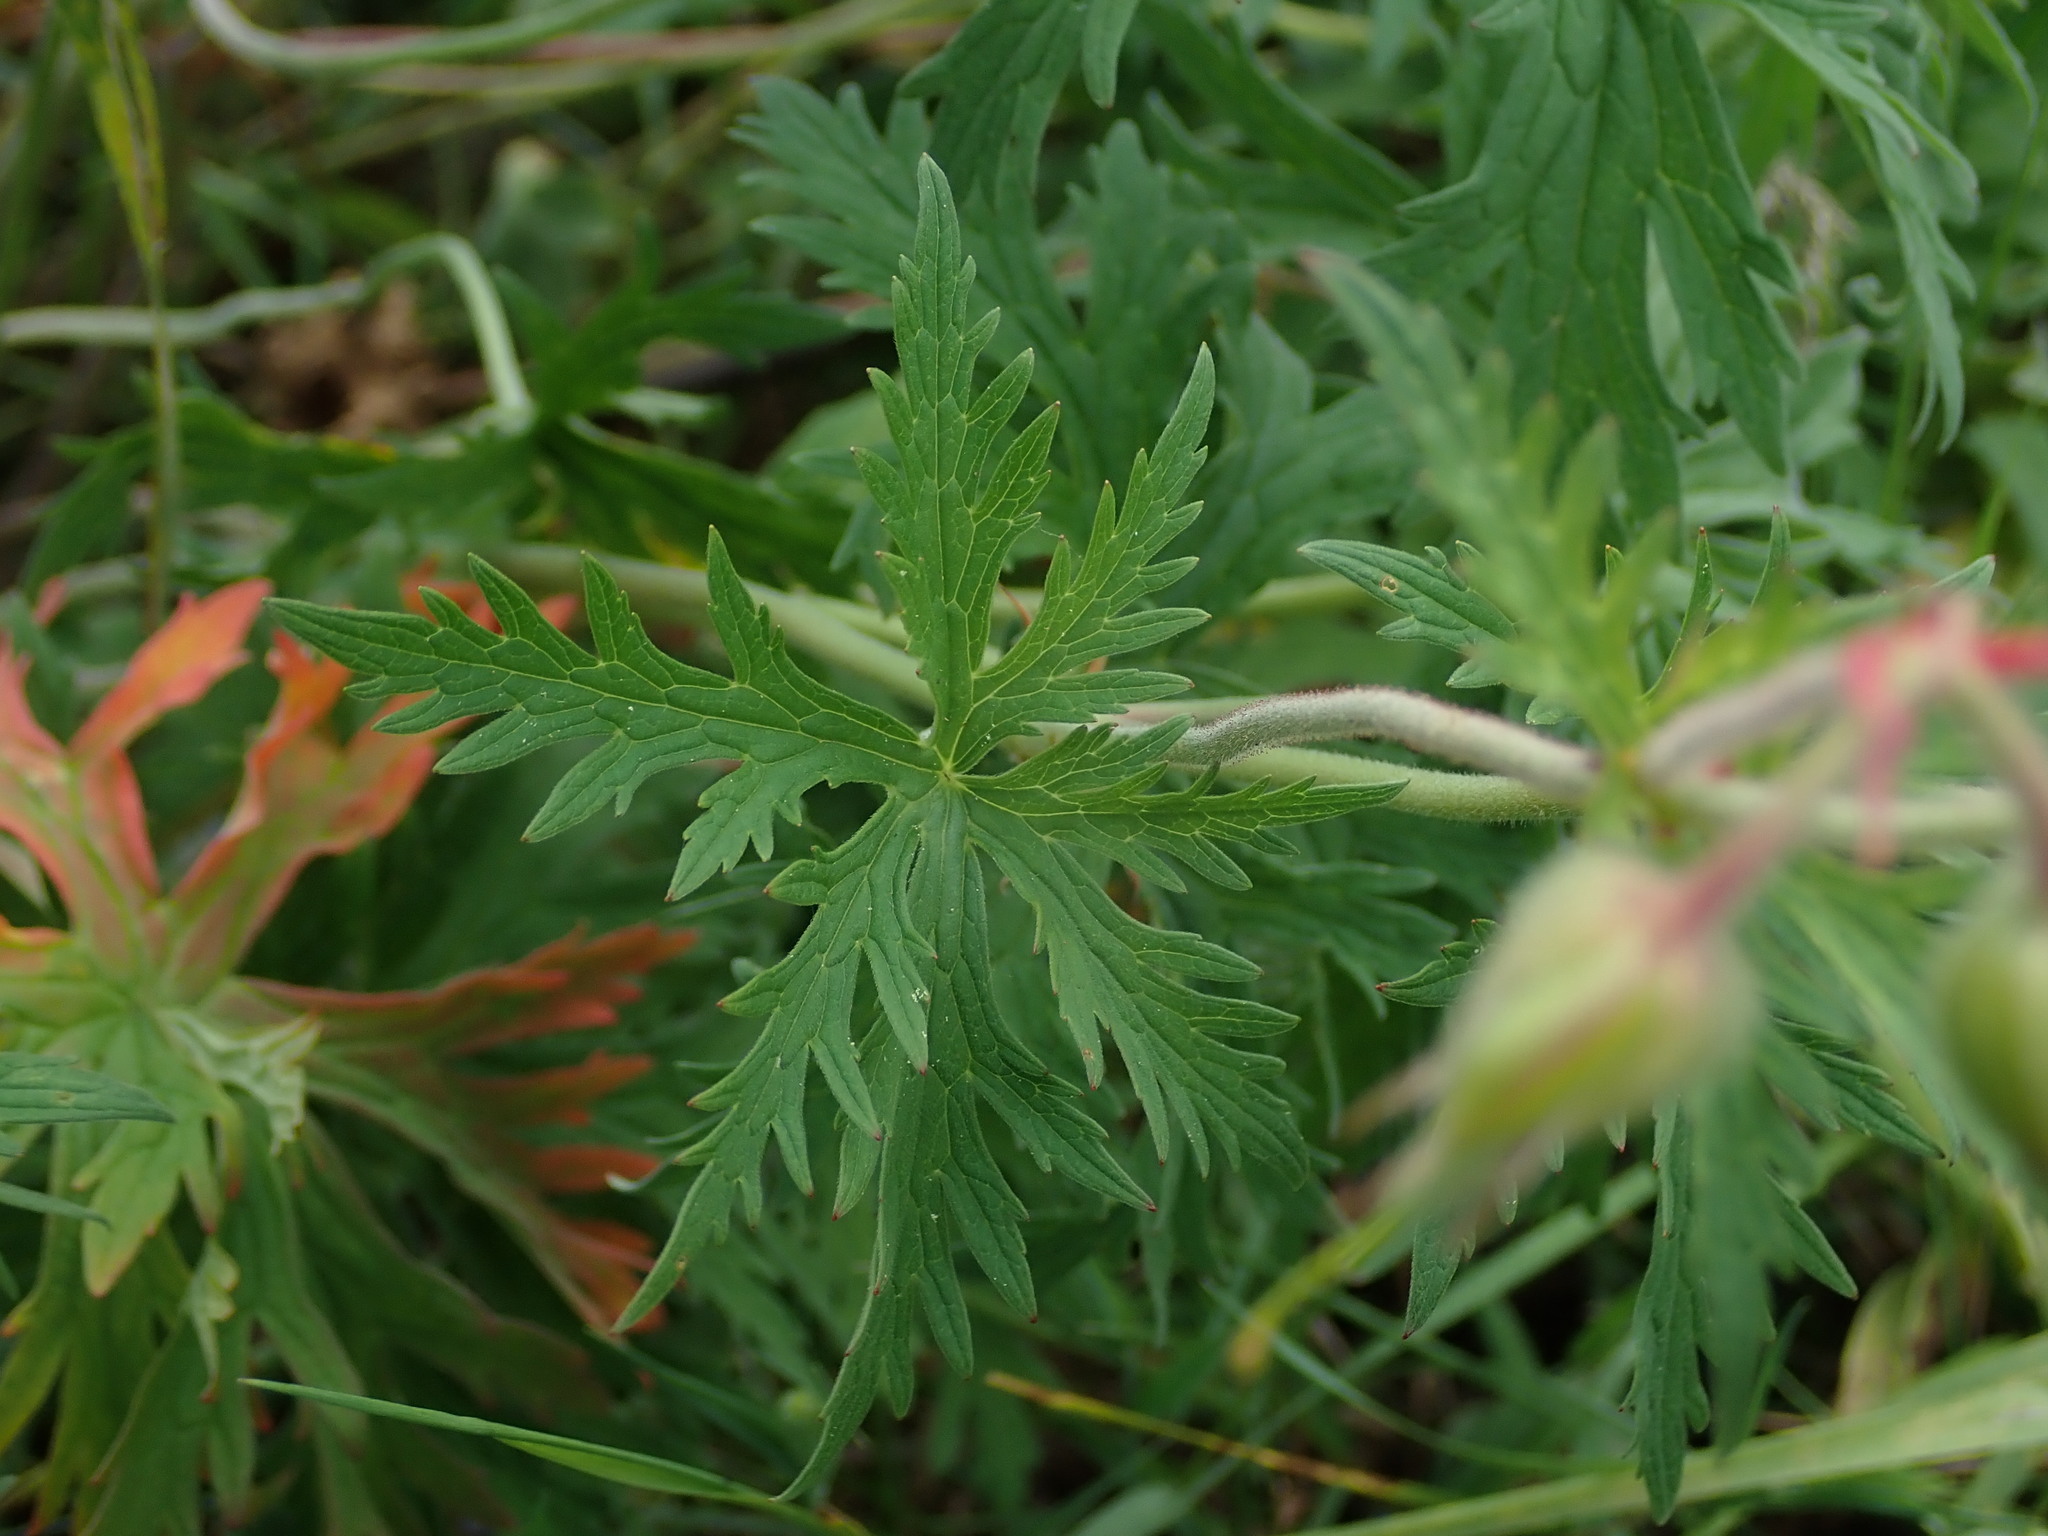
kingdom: Plantae
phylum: Tracheophyta
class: Magnoliopsida
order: Geraniales
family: Geraniaceae
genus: Geranium
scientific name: Geranium pratense
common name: Meadow crane's-bill
